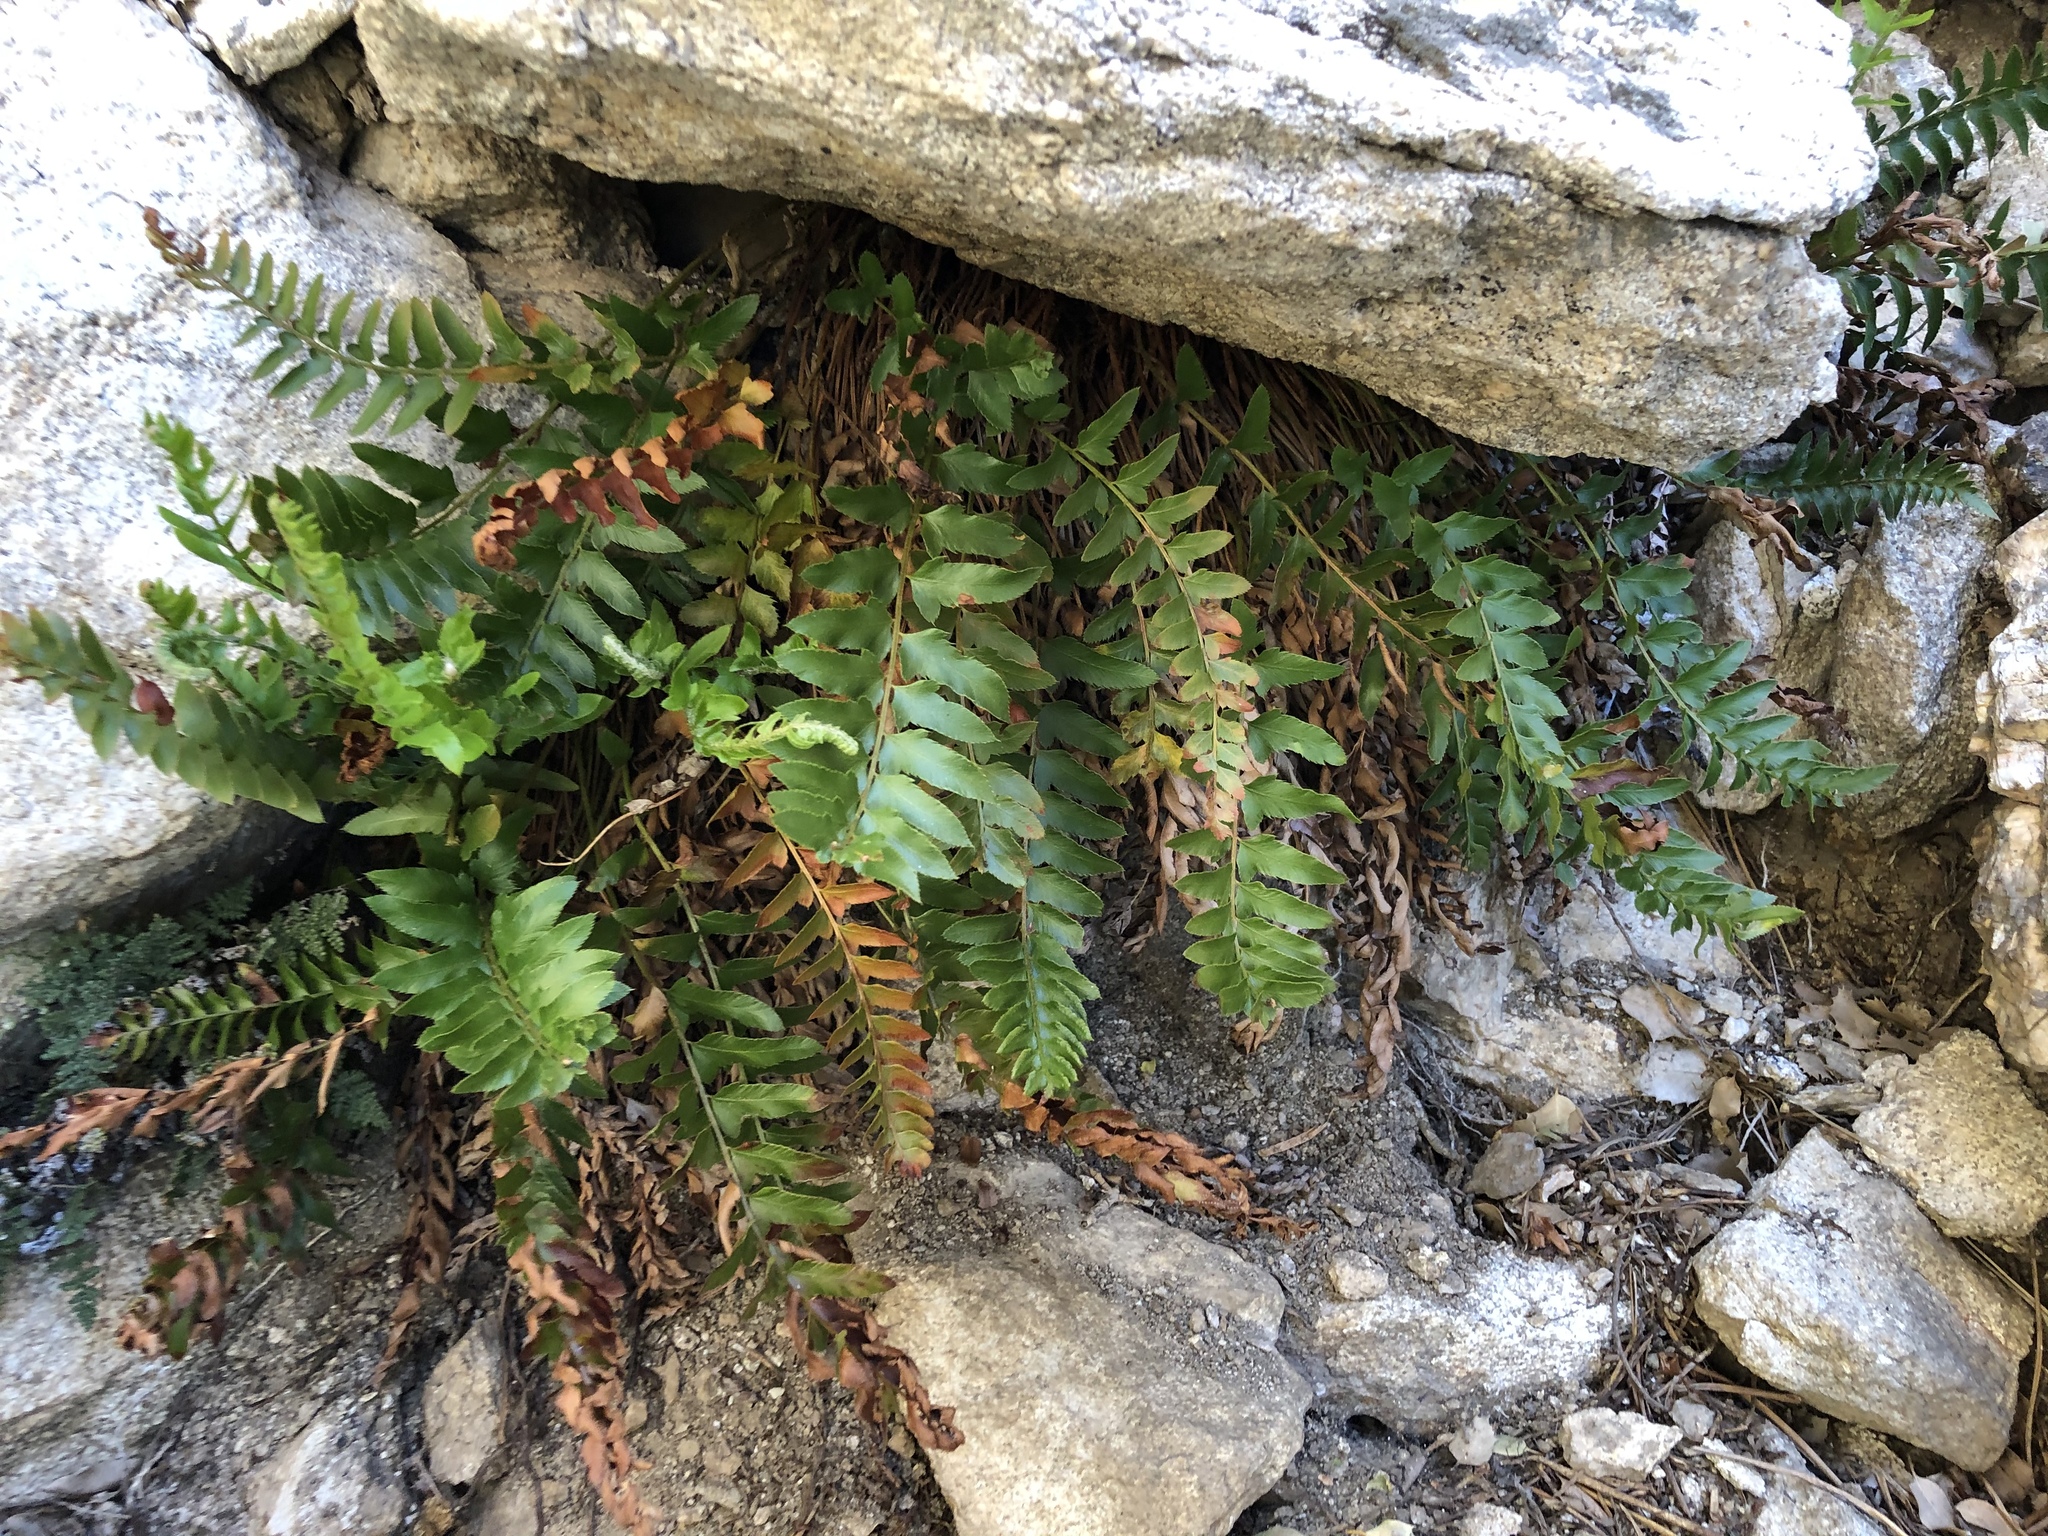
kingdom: Plantae
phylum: Tracheophyta
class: Polypodiopsida
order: Polypodiales
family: Dryopteridaceae
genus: Polystichum
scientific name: Polystichum imbricans
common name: Dwarf western sword fern
